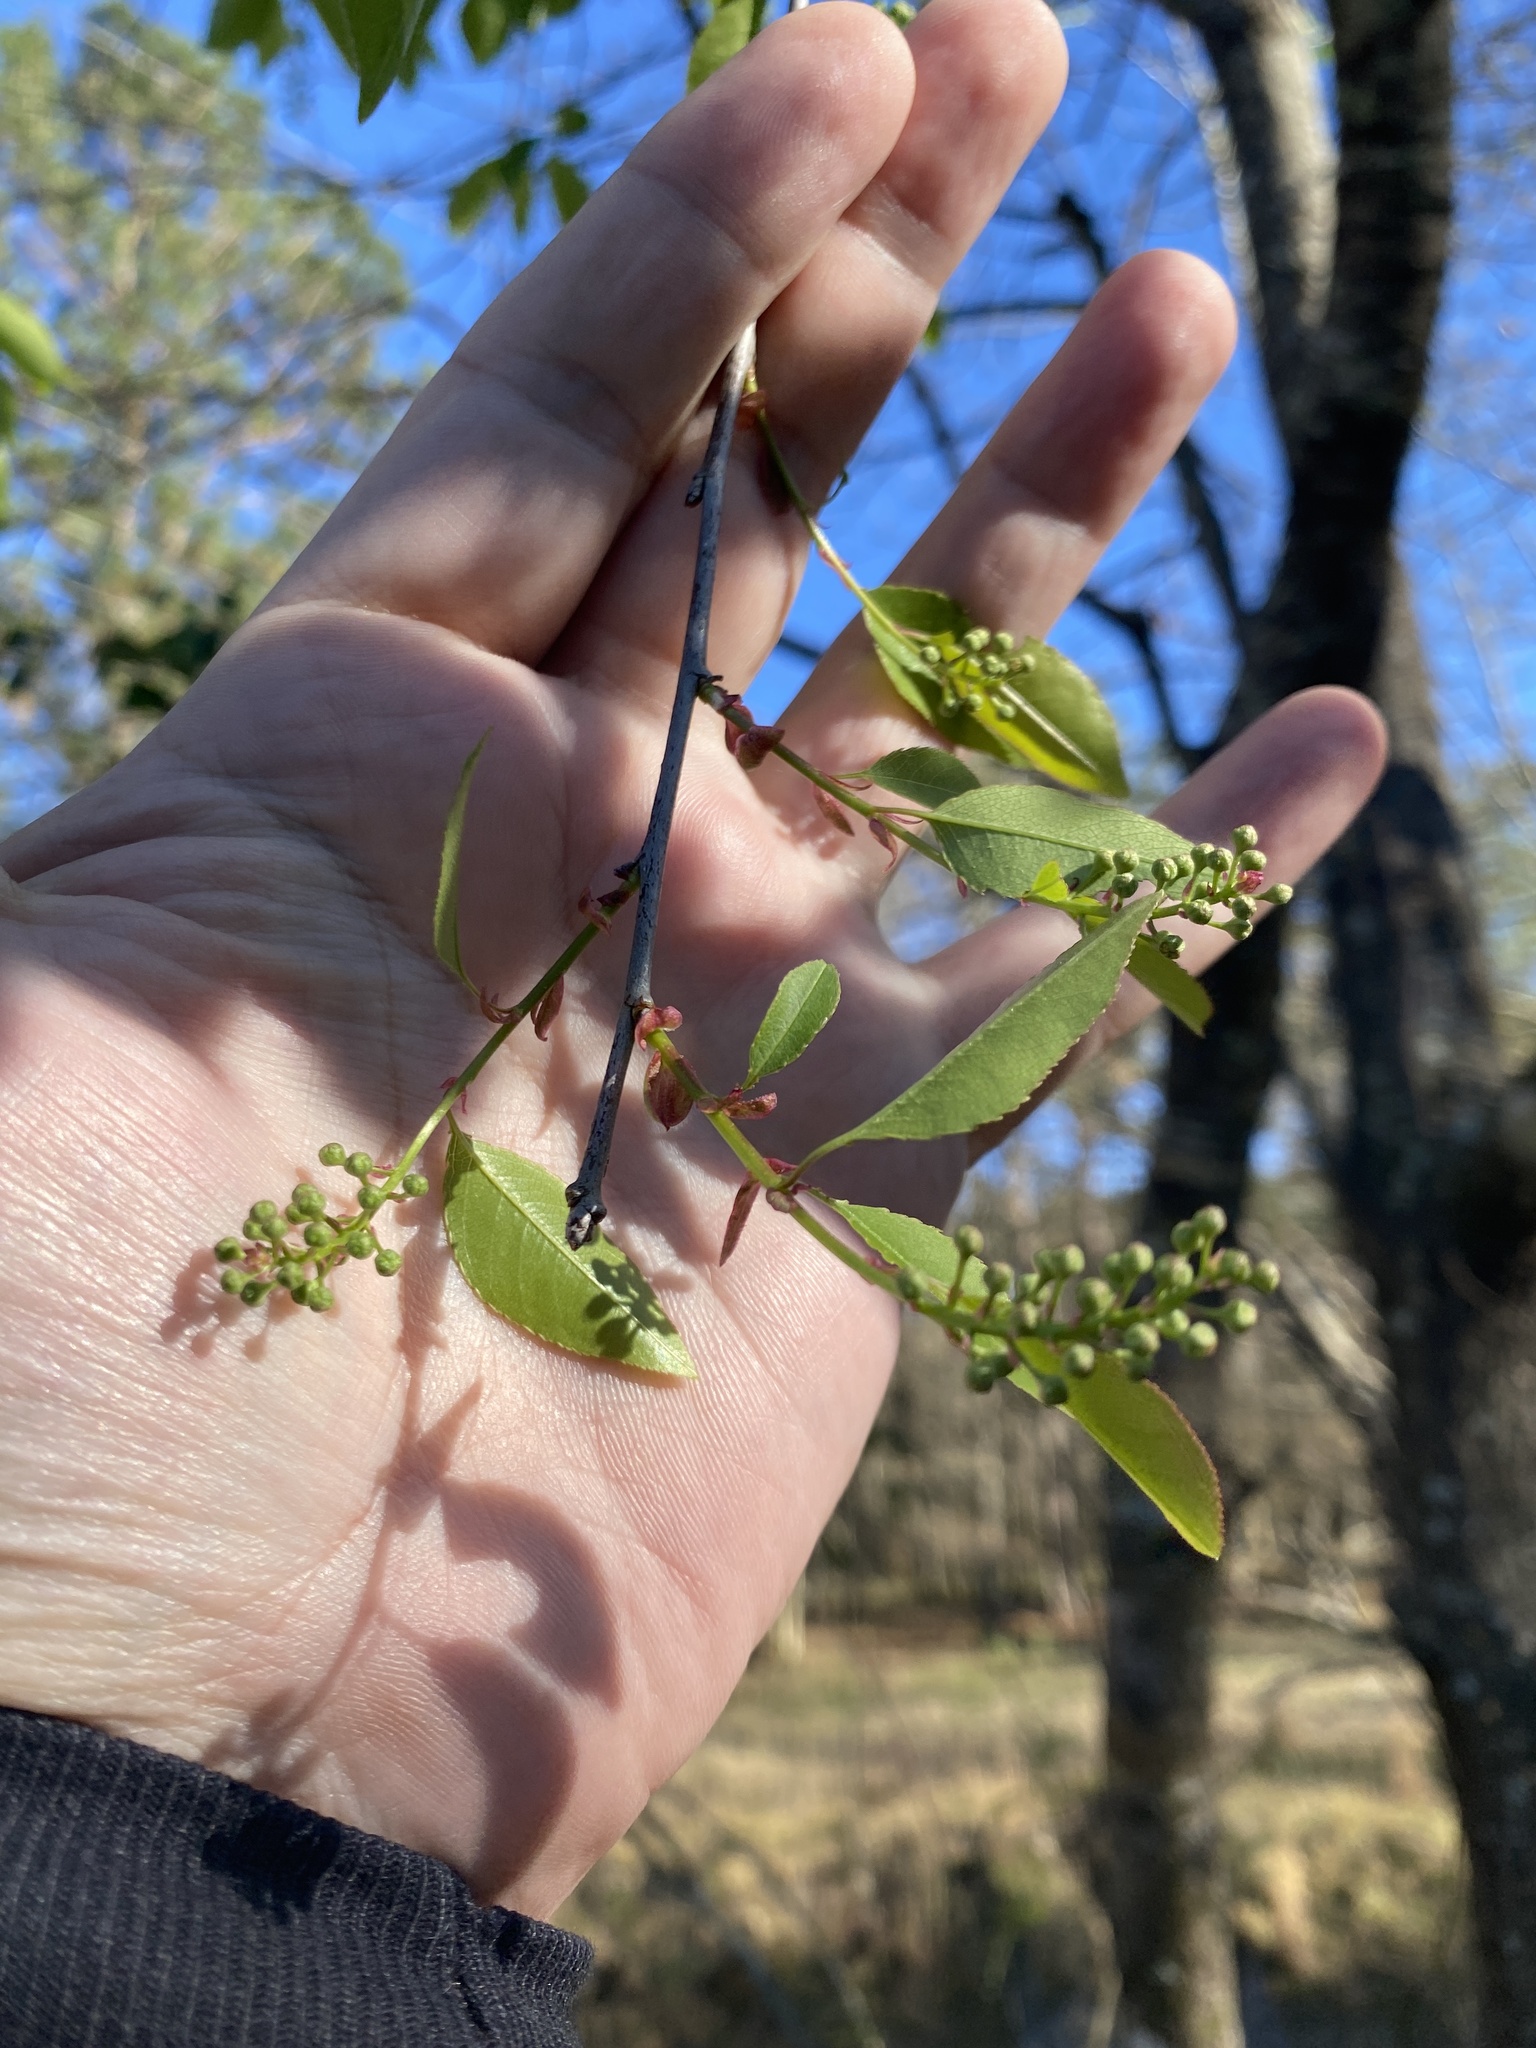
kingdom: Plantae
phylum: Tracheophyta
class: Magnoliopsida
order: Rosales
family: Rosaceae
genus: Prunus
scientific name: Prunus serotina
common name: Black cherry
